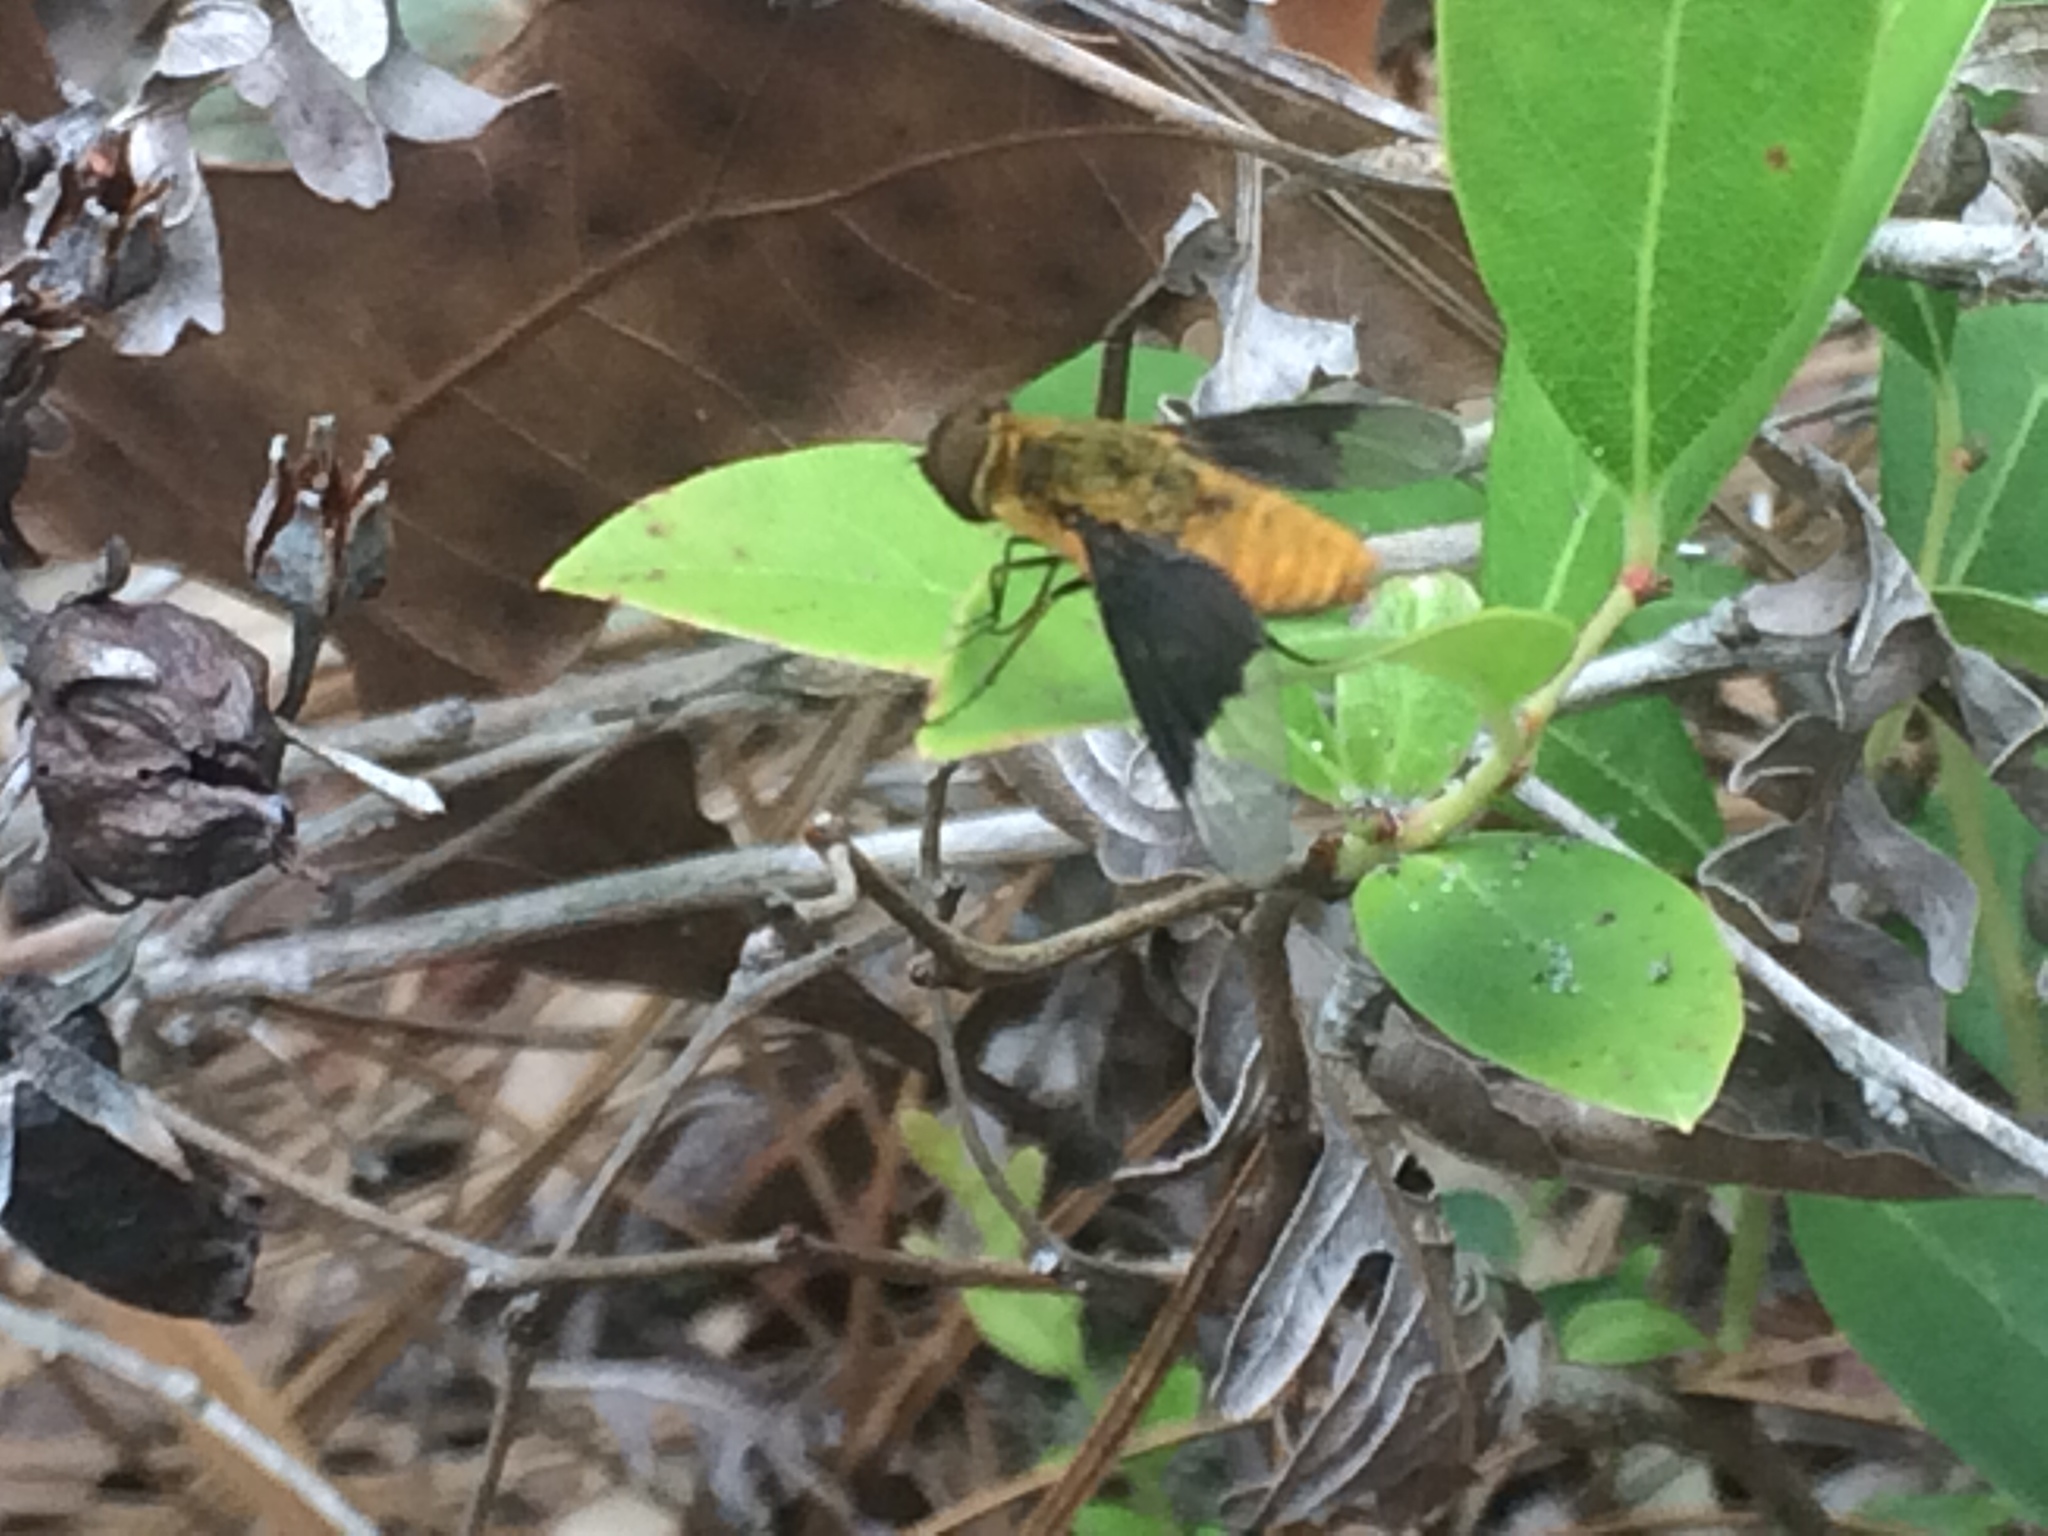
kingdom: Animalia
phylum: Arthropoda
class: Insecta
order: Diptera
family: Bombyliidae
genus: Chrysanthrax
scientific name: Chrysanthrax cypris
